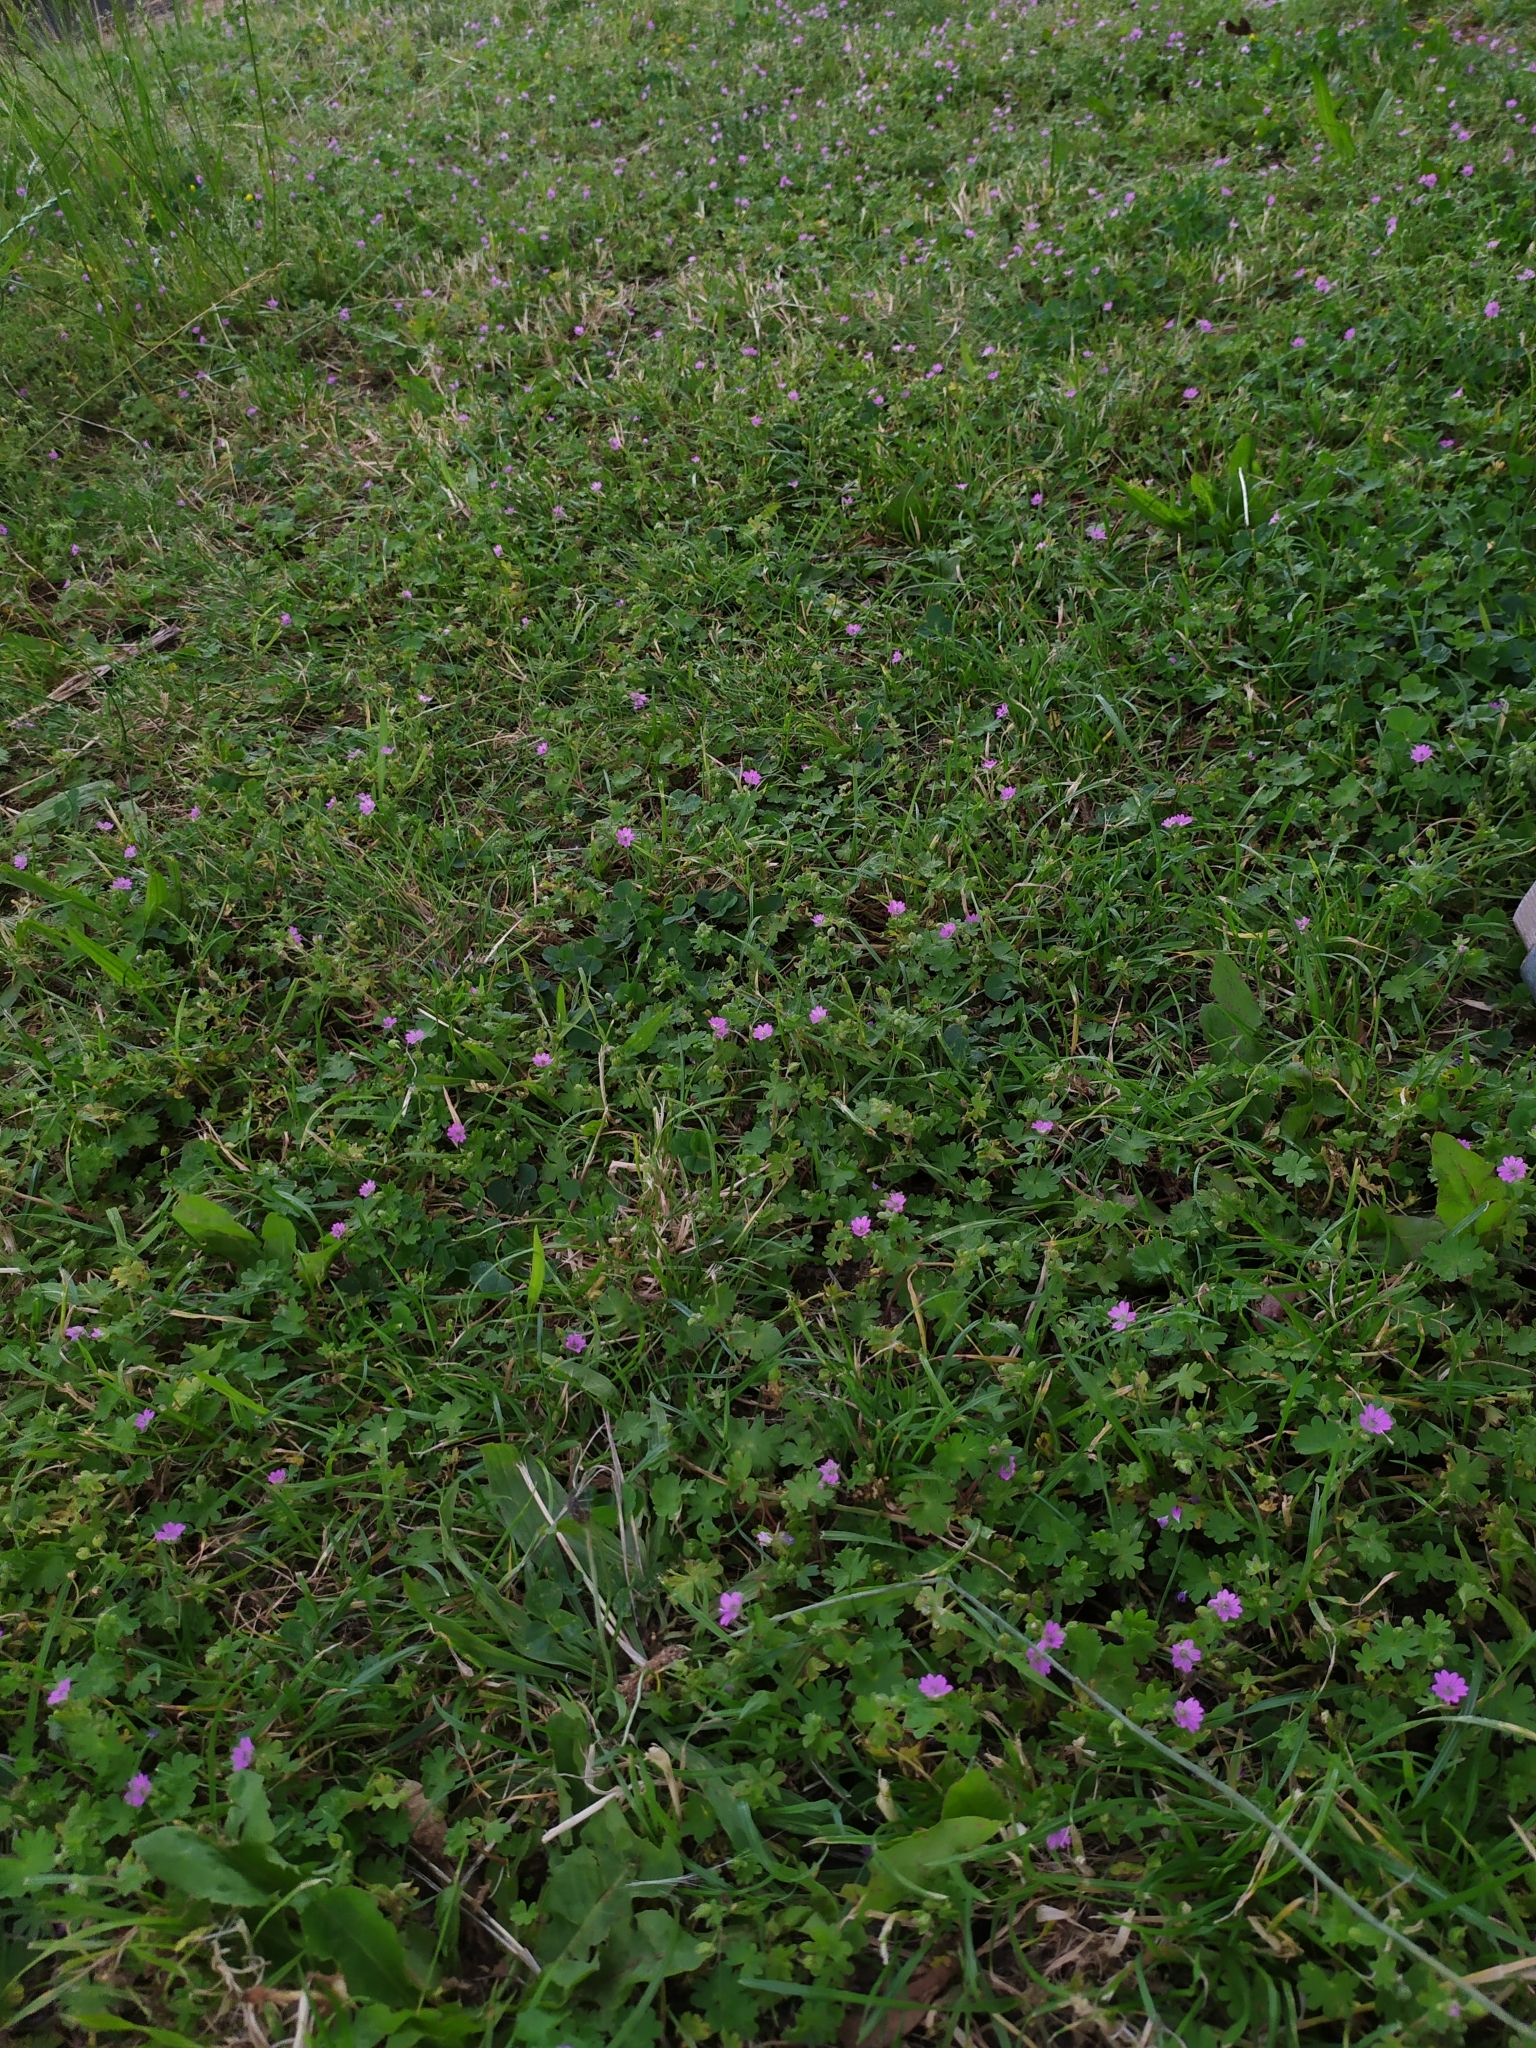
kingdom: Plantae
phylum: Tracheophyta
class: Magnoliopsida
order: Geraniales
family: Geraniaceae
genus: Geranium
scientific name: Geranium molle
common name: Dove's-foot crane's-bill
